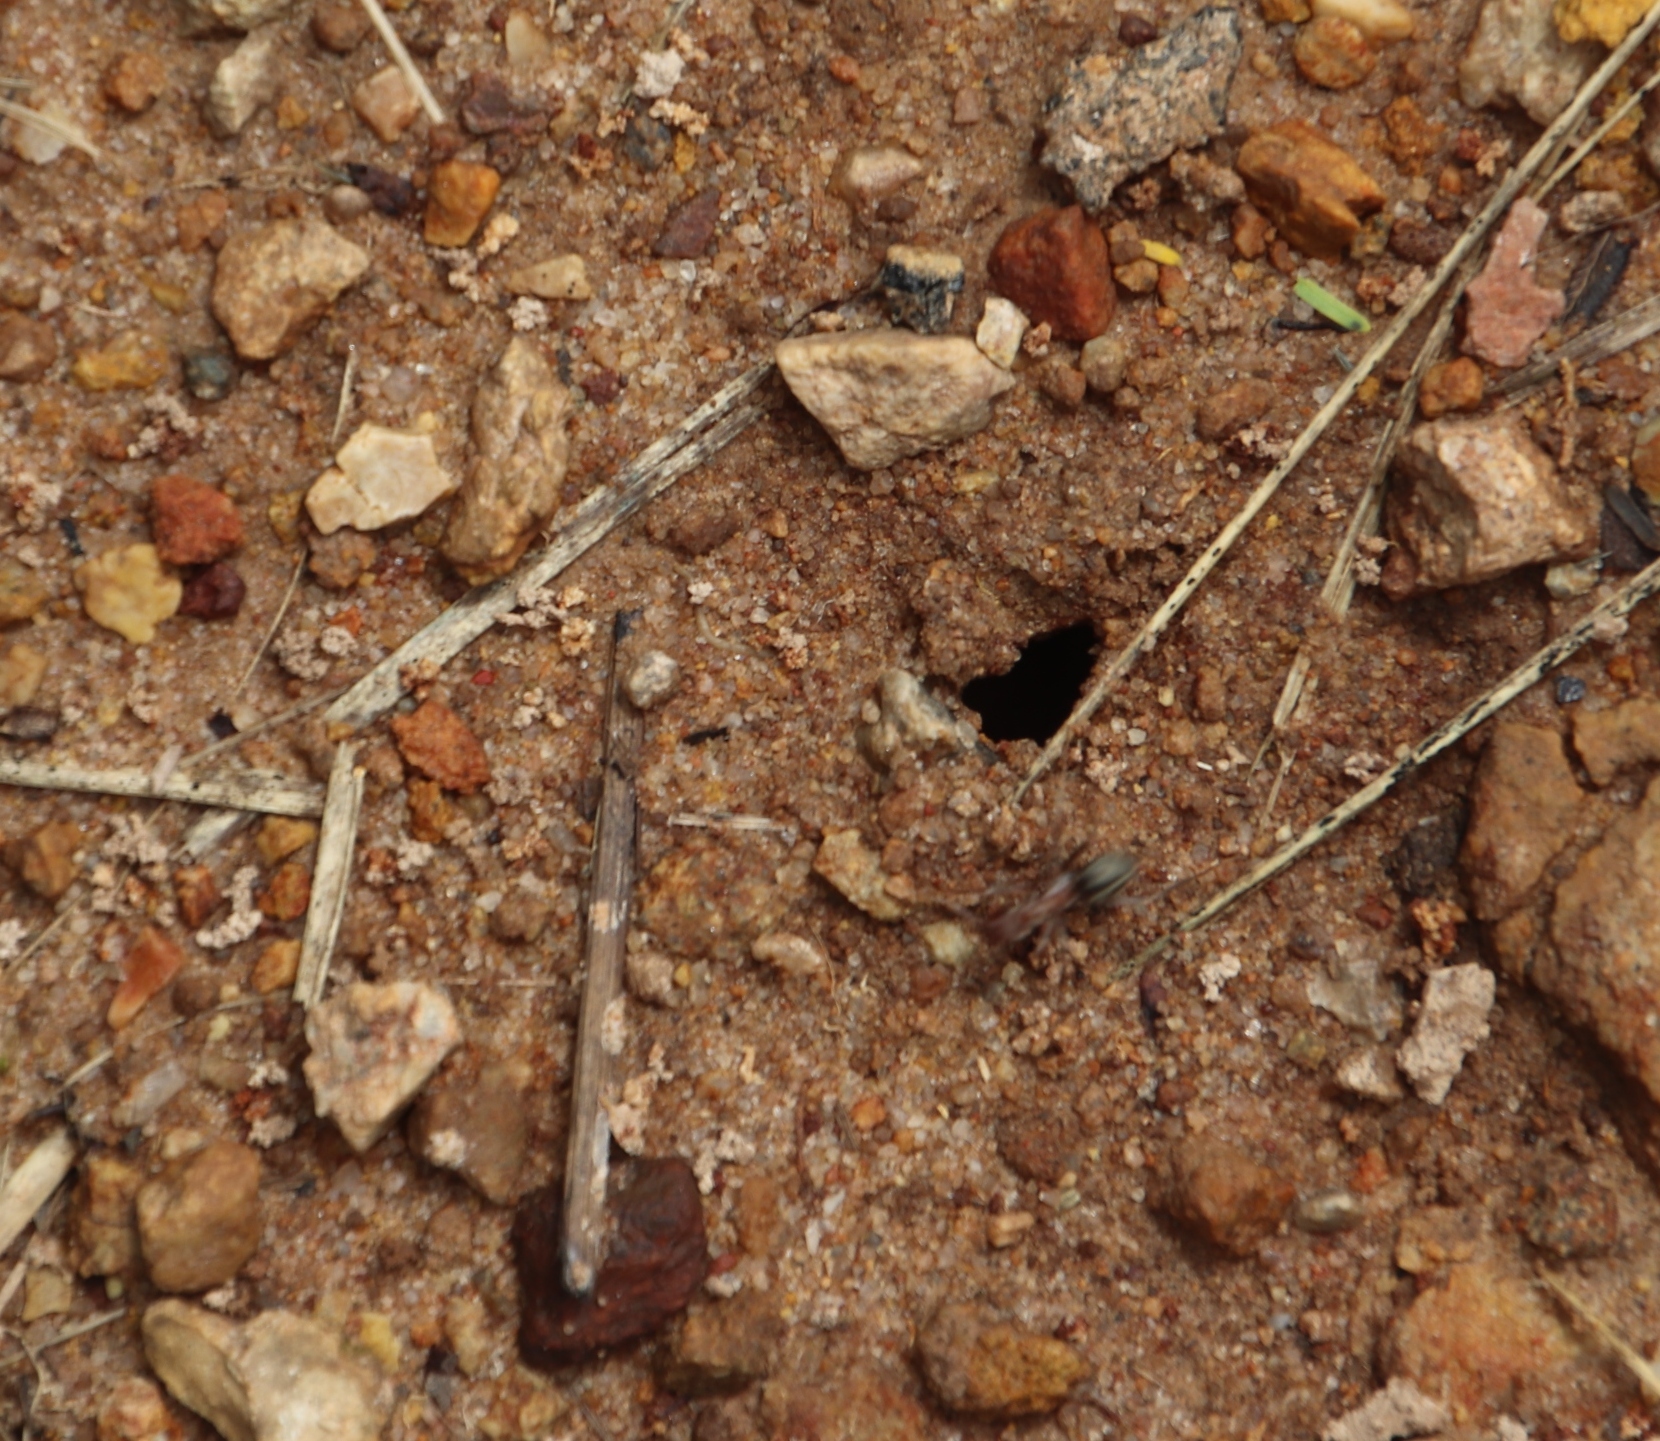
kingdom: Animalia
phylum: Arthropoda
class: Insecta
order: Hymenoptera
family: Formicidae
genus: Anoplolepis
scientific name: Anoplolepis custodiens
